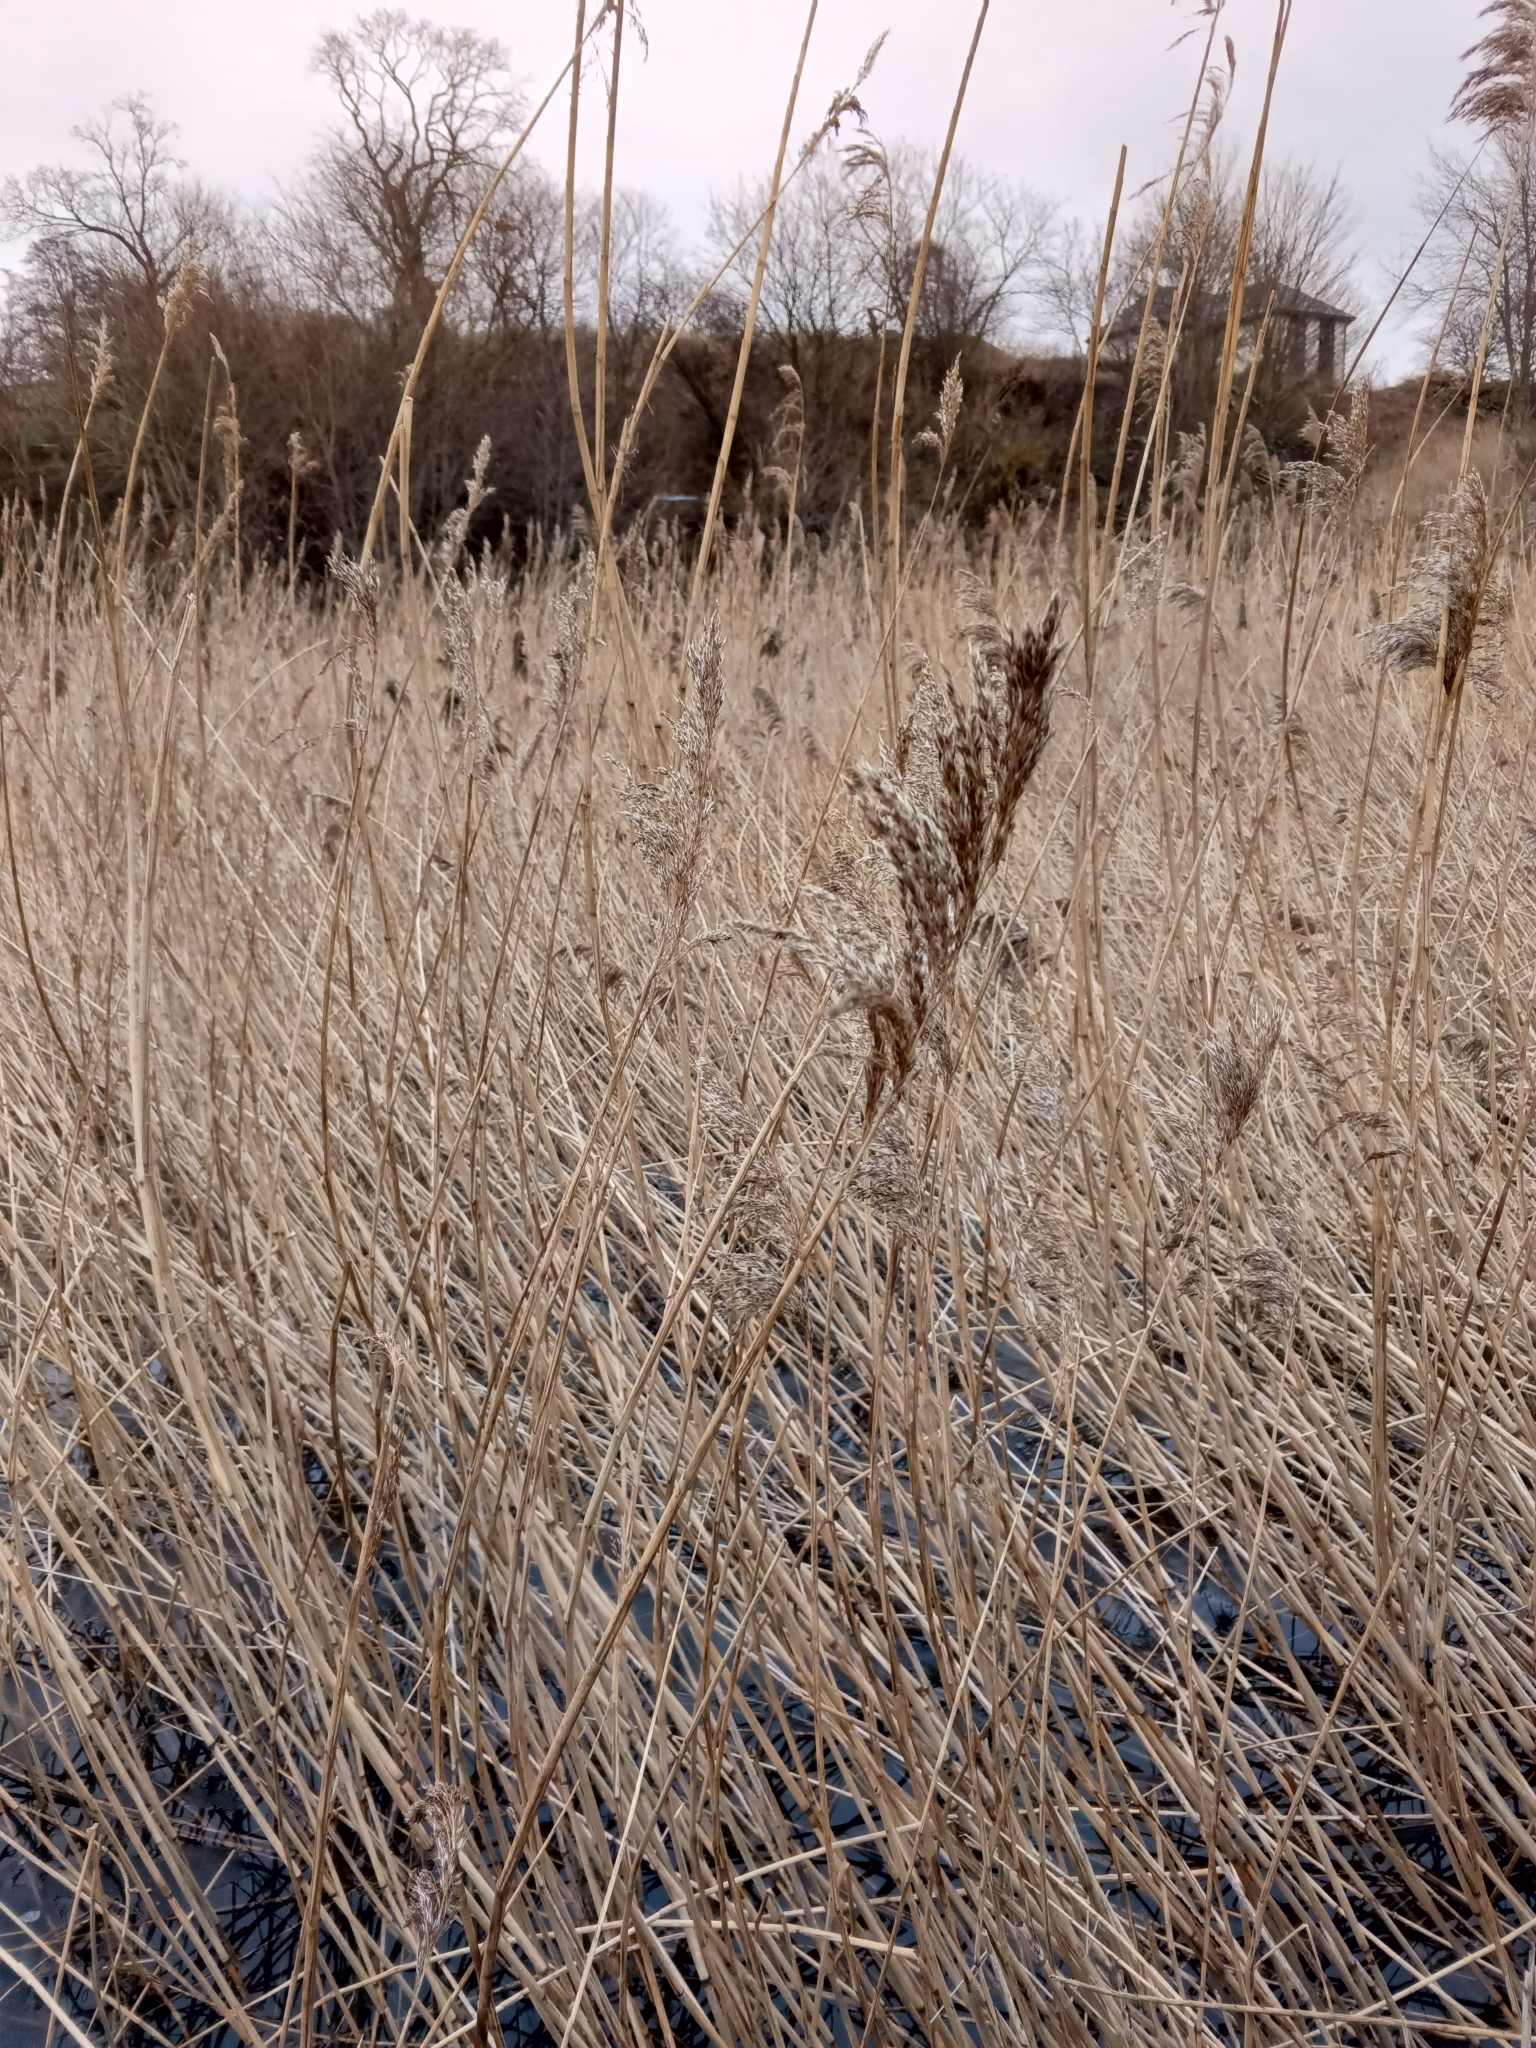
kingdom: Plantae
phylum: Tracheophyta
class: Liliopsida
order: Poales
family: Poaceae
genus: Phragmites
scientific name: Phragmites australis
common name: Common reed
